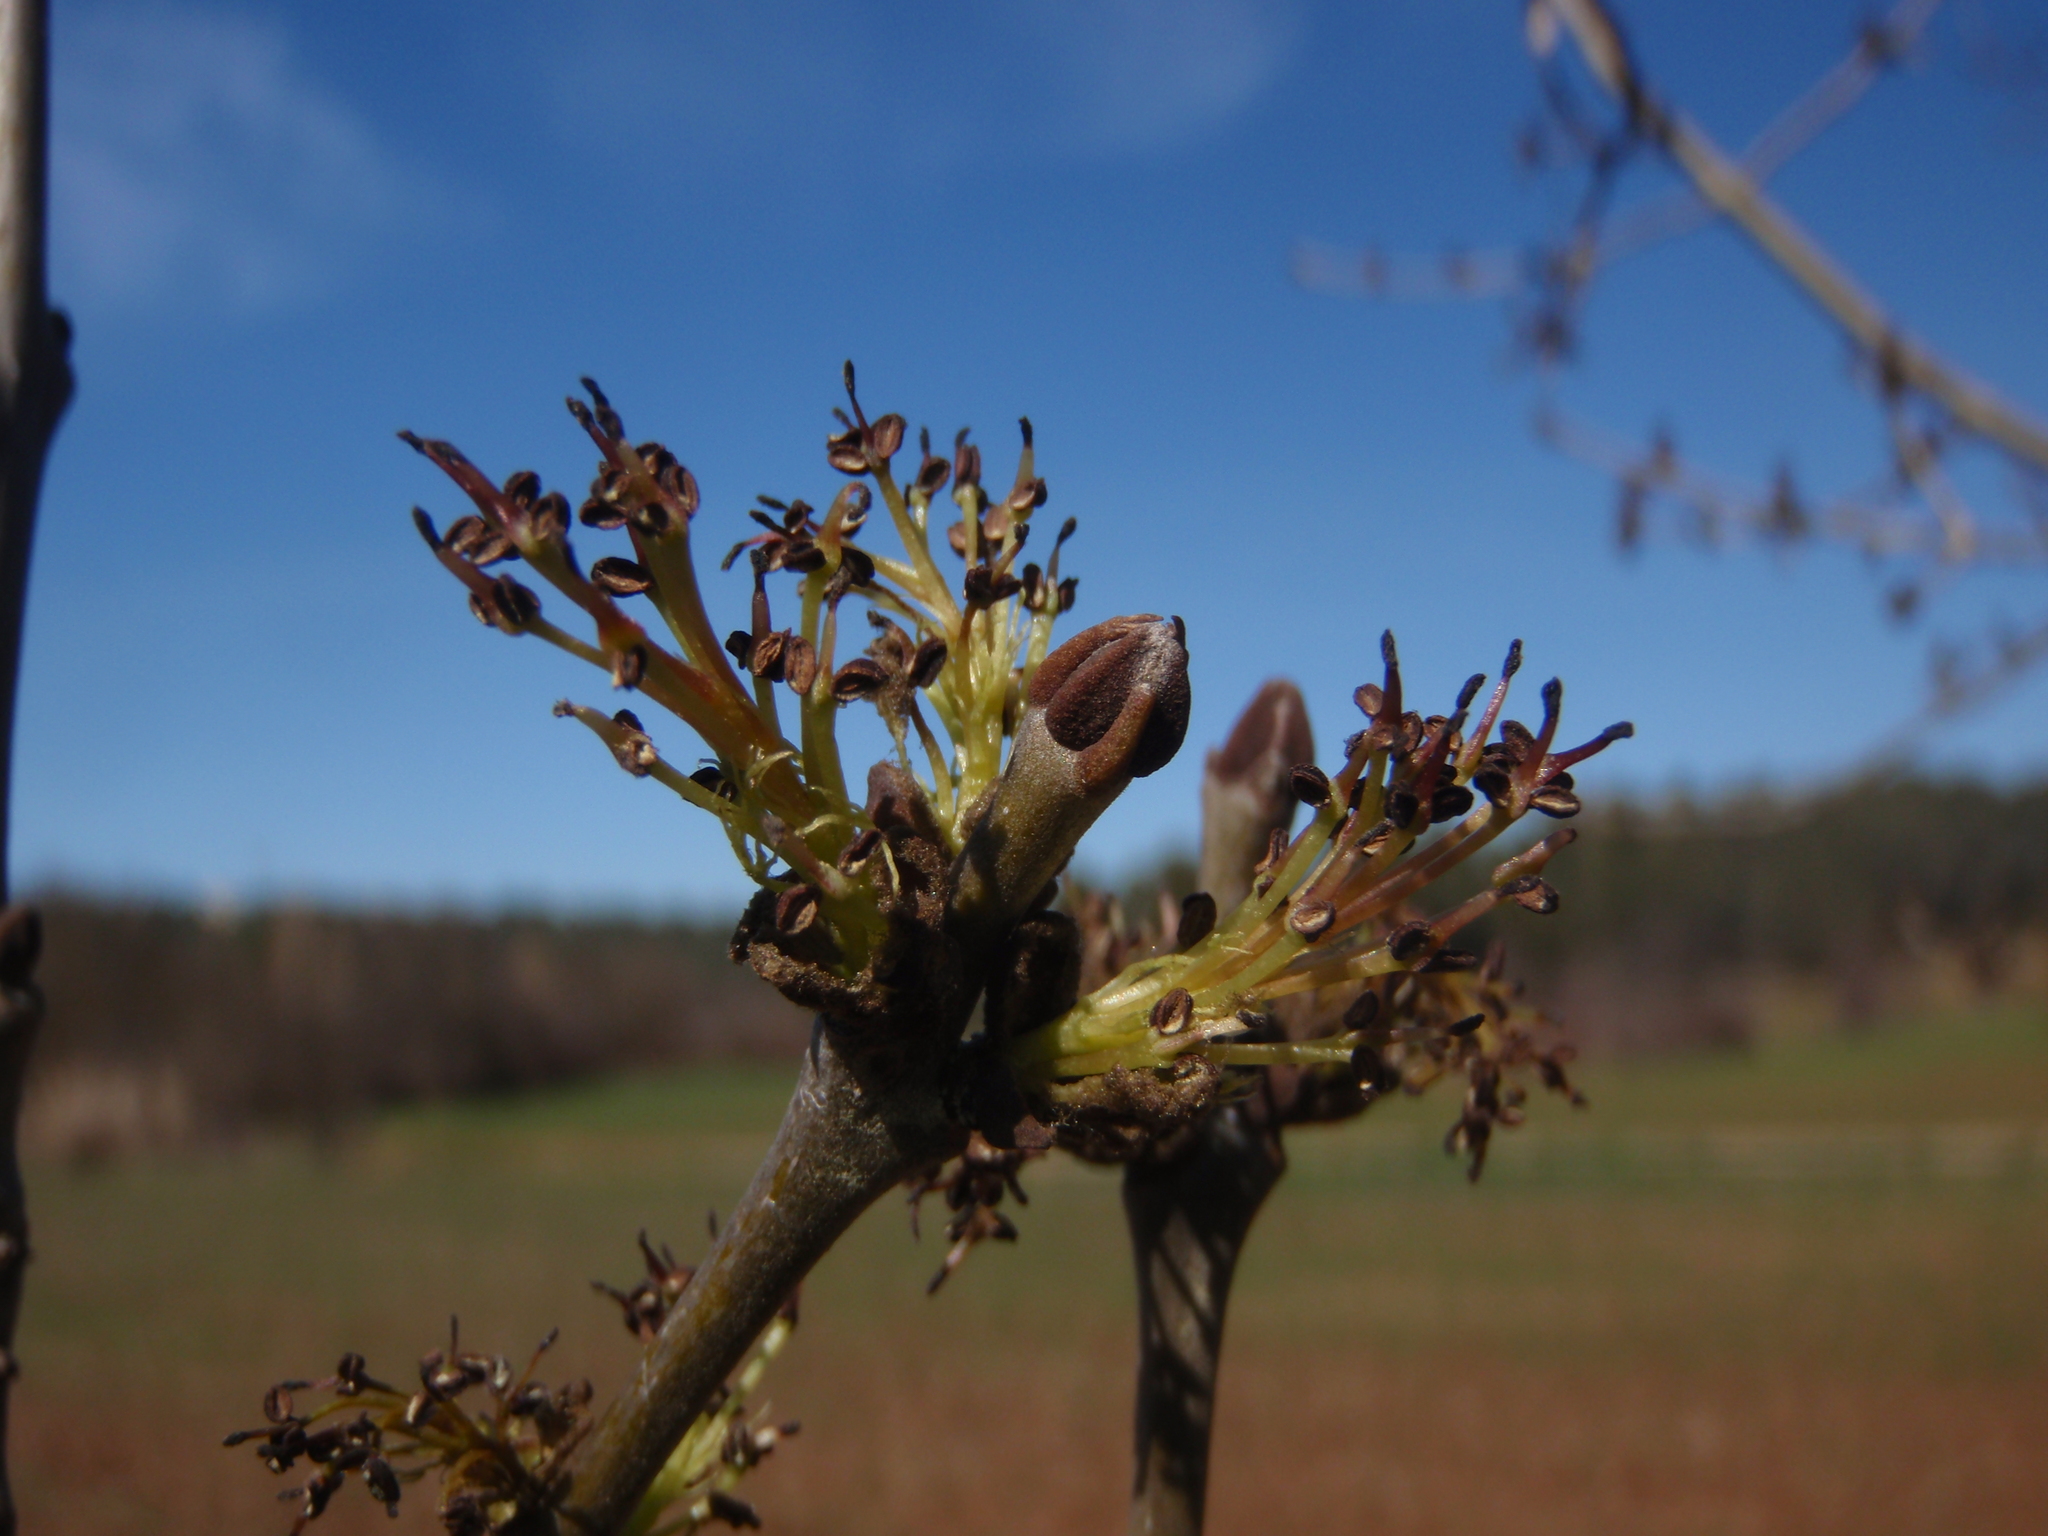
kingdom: Plantae
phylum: Tracheophyta
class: Magnoliopsida
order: Lamiales
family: Oleaceae
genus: Fraxinus
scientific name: Fraxinus angustifolia
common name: Narrow-leafed ash
